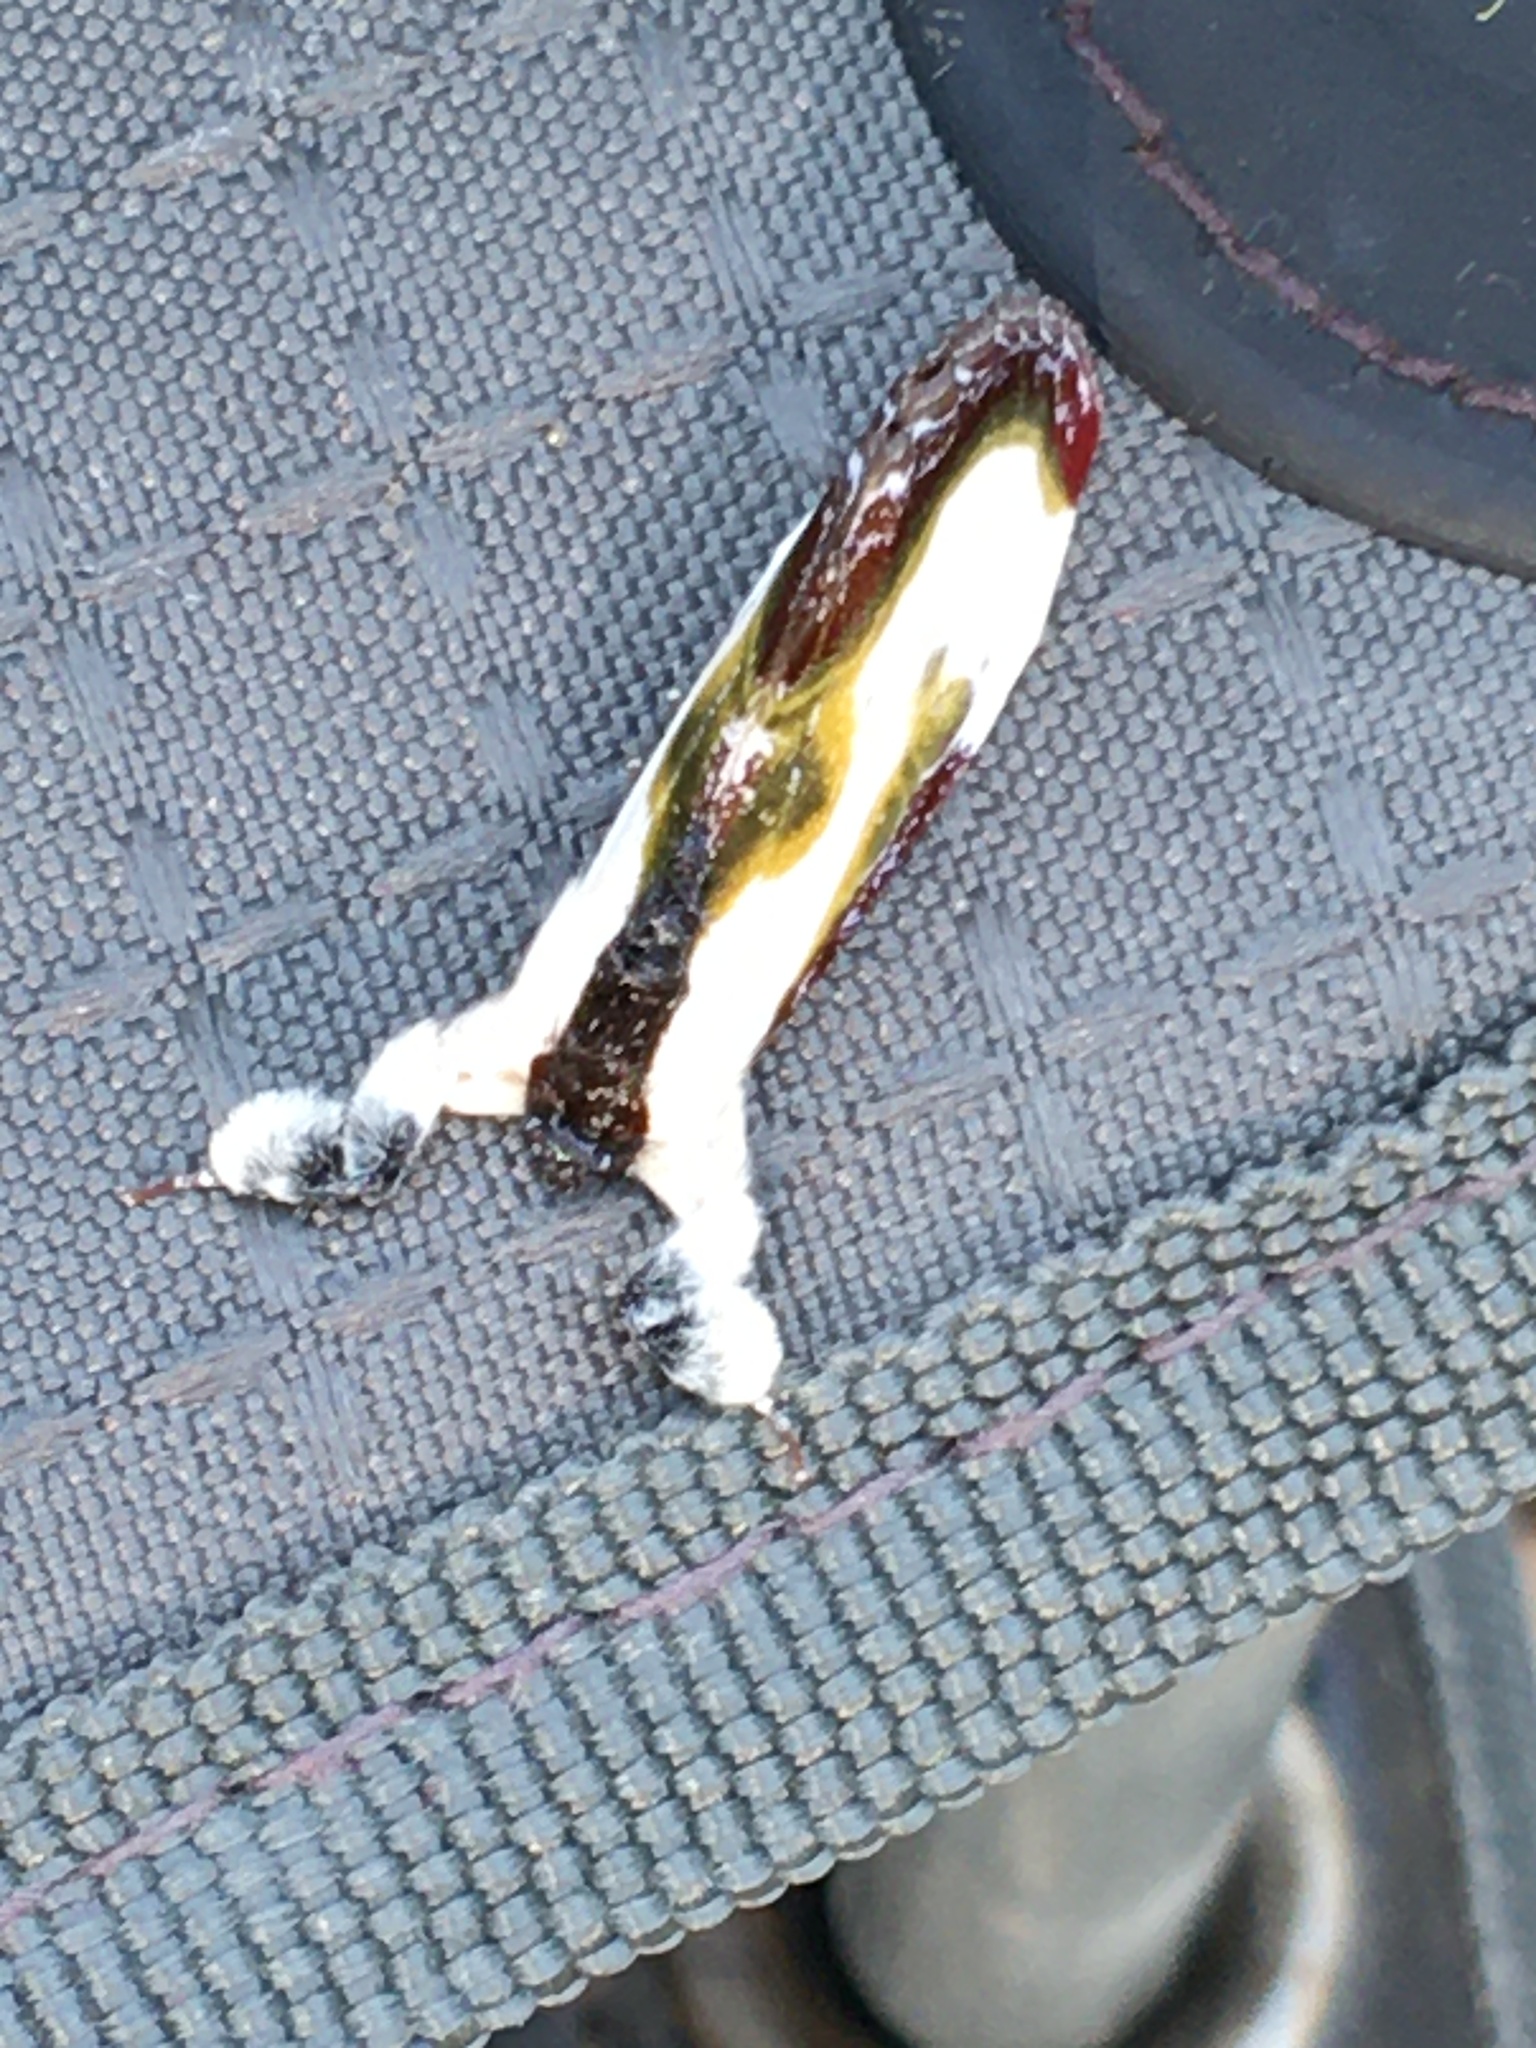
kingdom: Animalia
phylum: Arthropoda
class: Insecta
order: Lepidoptera
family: Noctuidae
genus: Eudryas
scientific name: Eudryas grata
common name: Beautiful wood-nymph
